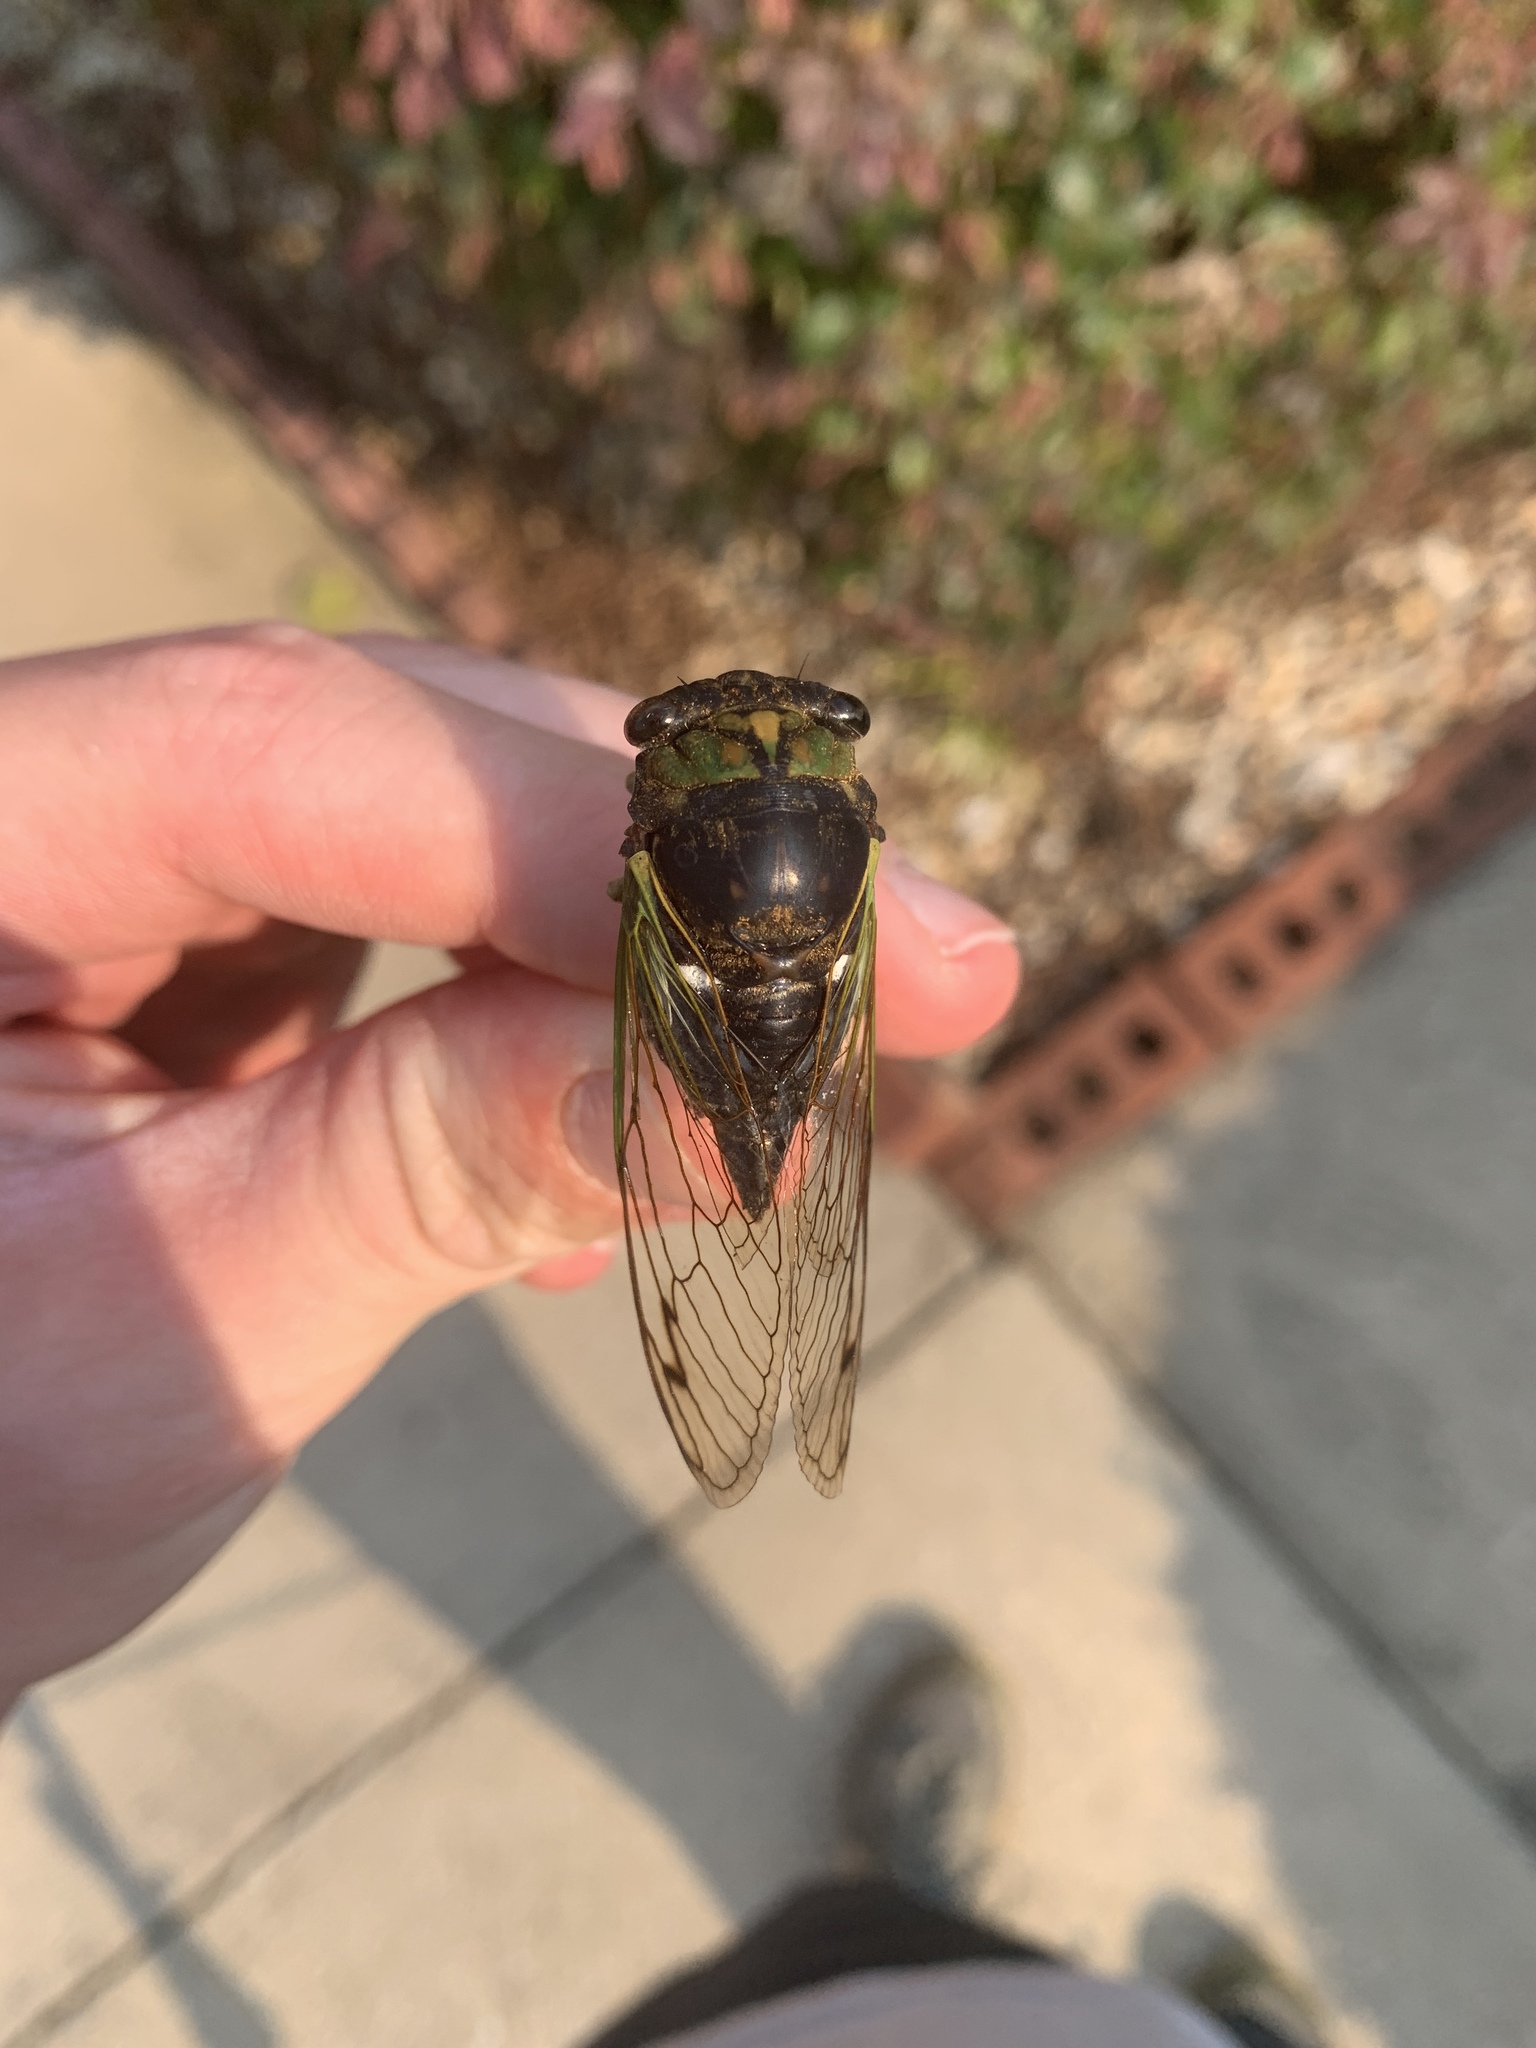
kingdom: Animalia
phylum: Arthropoda
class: Insecta
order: Hemiptera
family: Cicadidae
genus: Neotibicen
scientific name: Neotibicen tibicen
